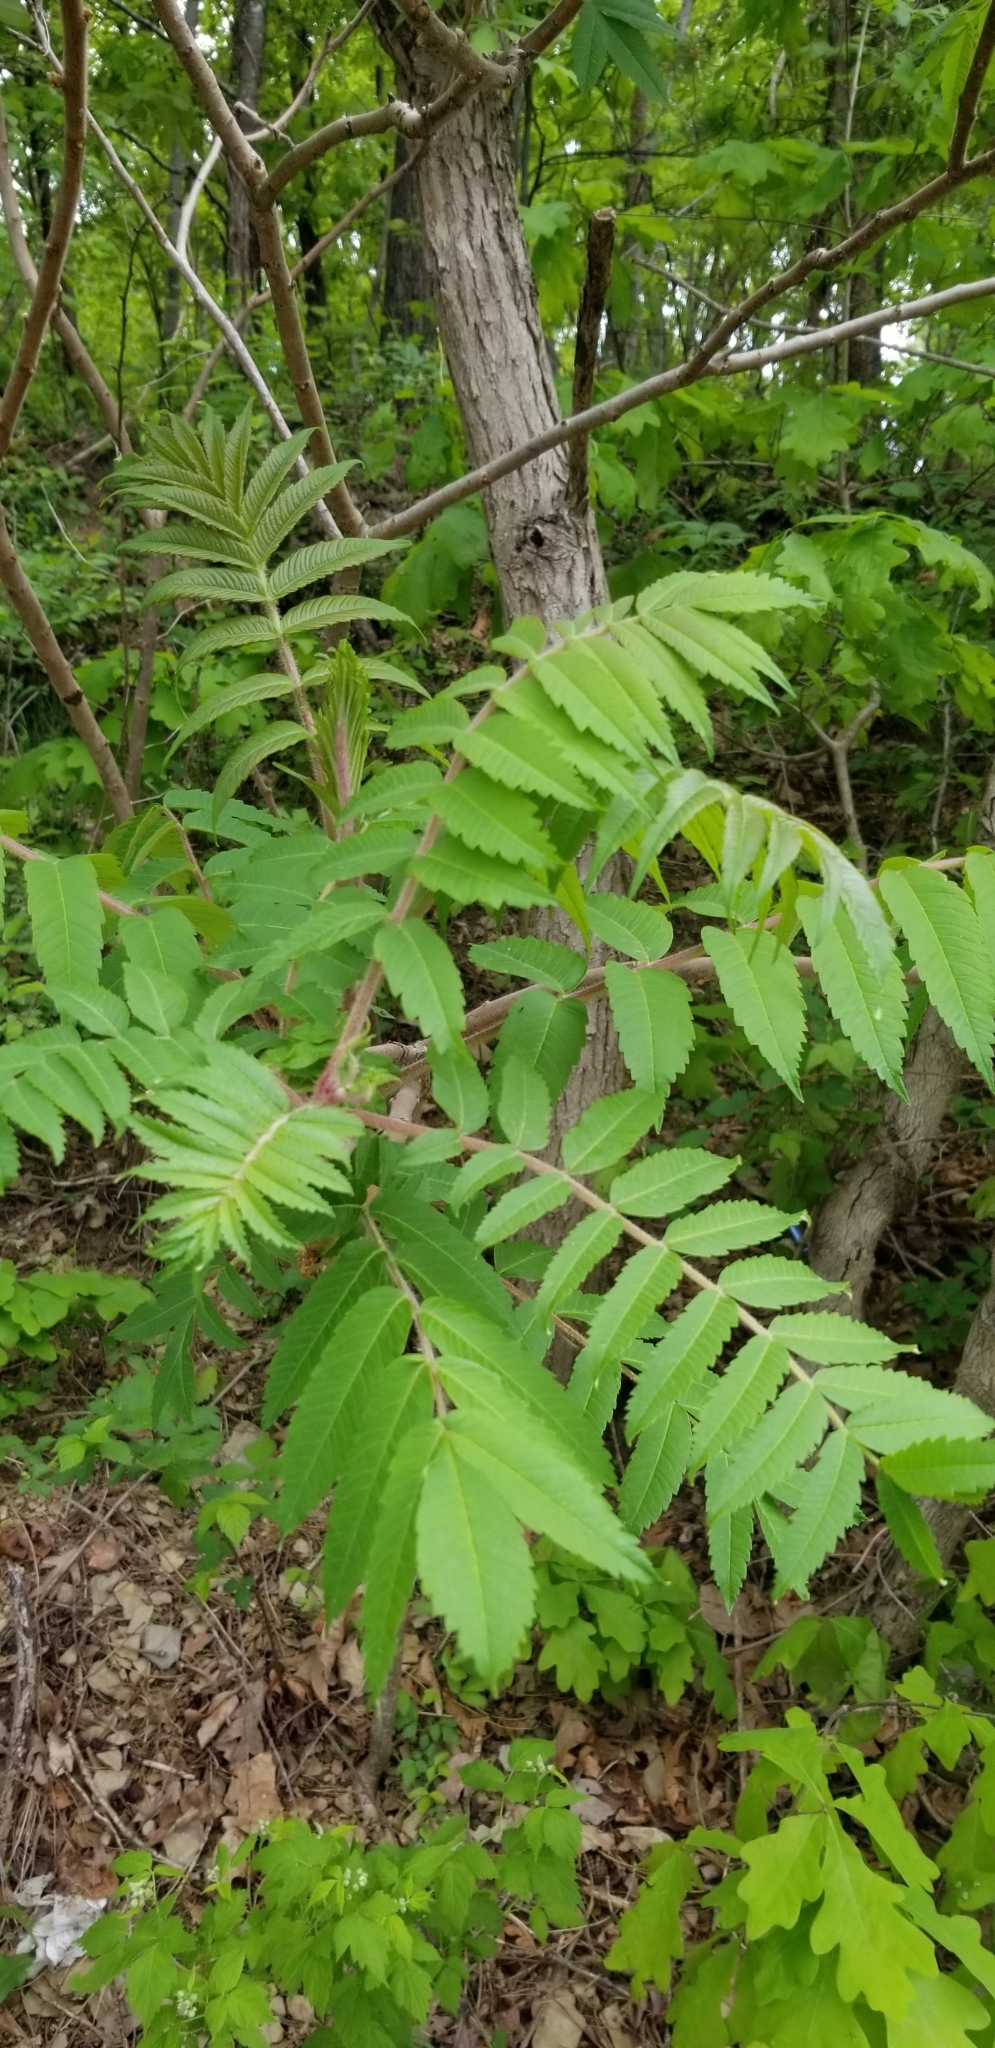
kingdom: Plantae
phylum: Tracheophyta
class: Magnoliopsida
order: Sapindales
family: Anacardiaceae
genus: Rhus
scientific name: Rhus typhina
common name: Staghorn sumac
